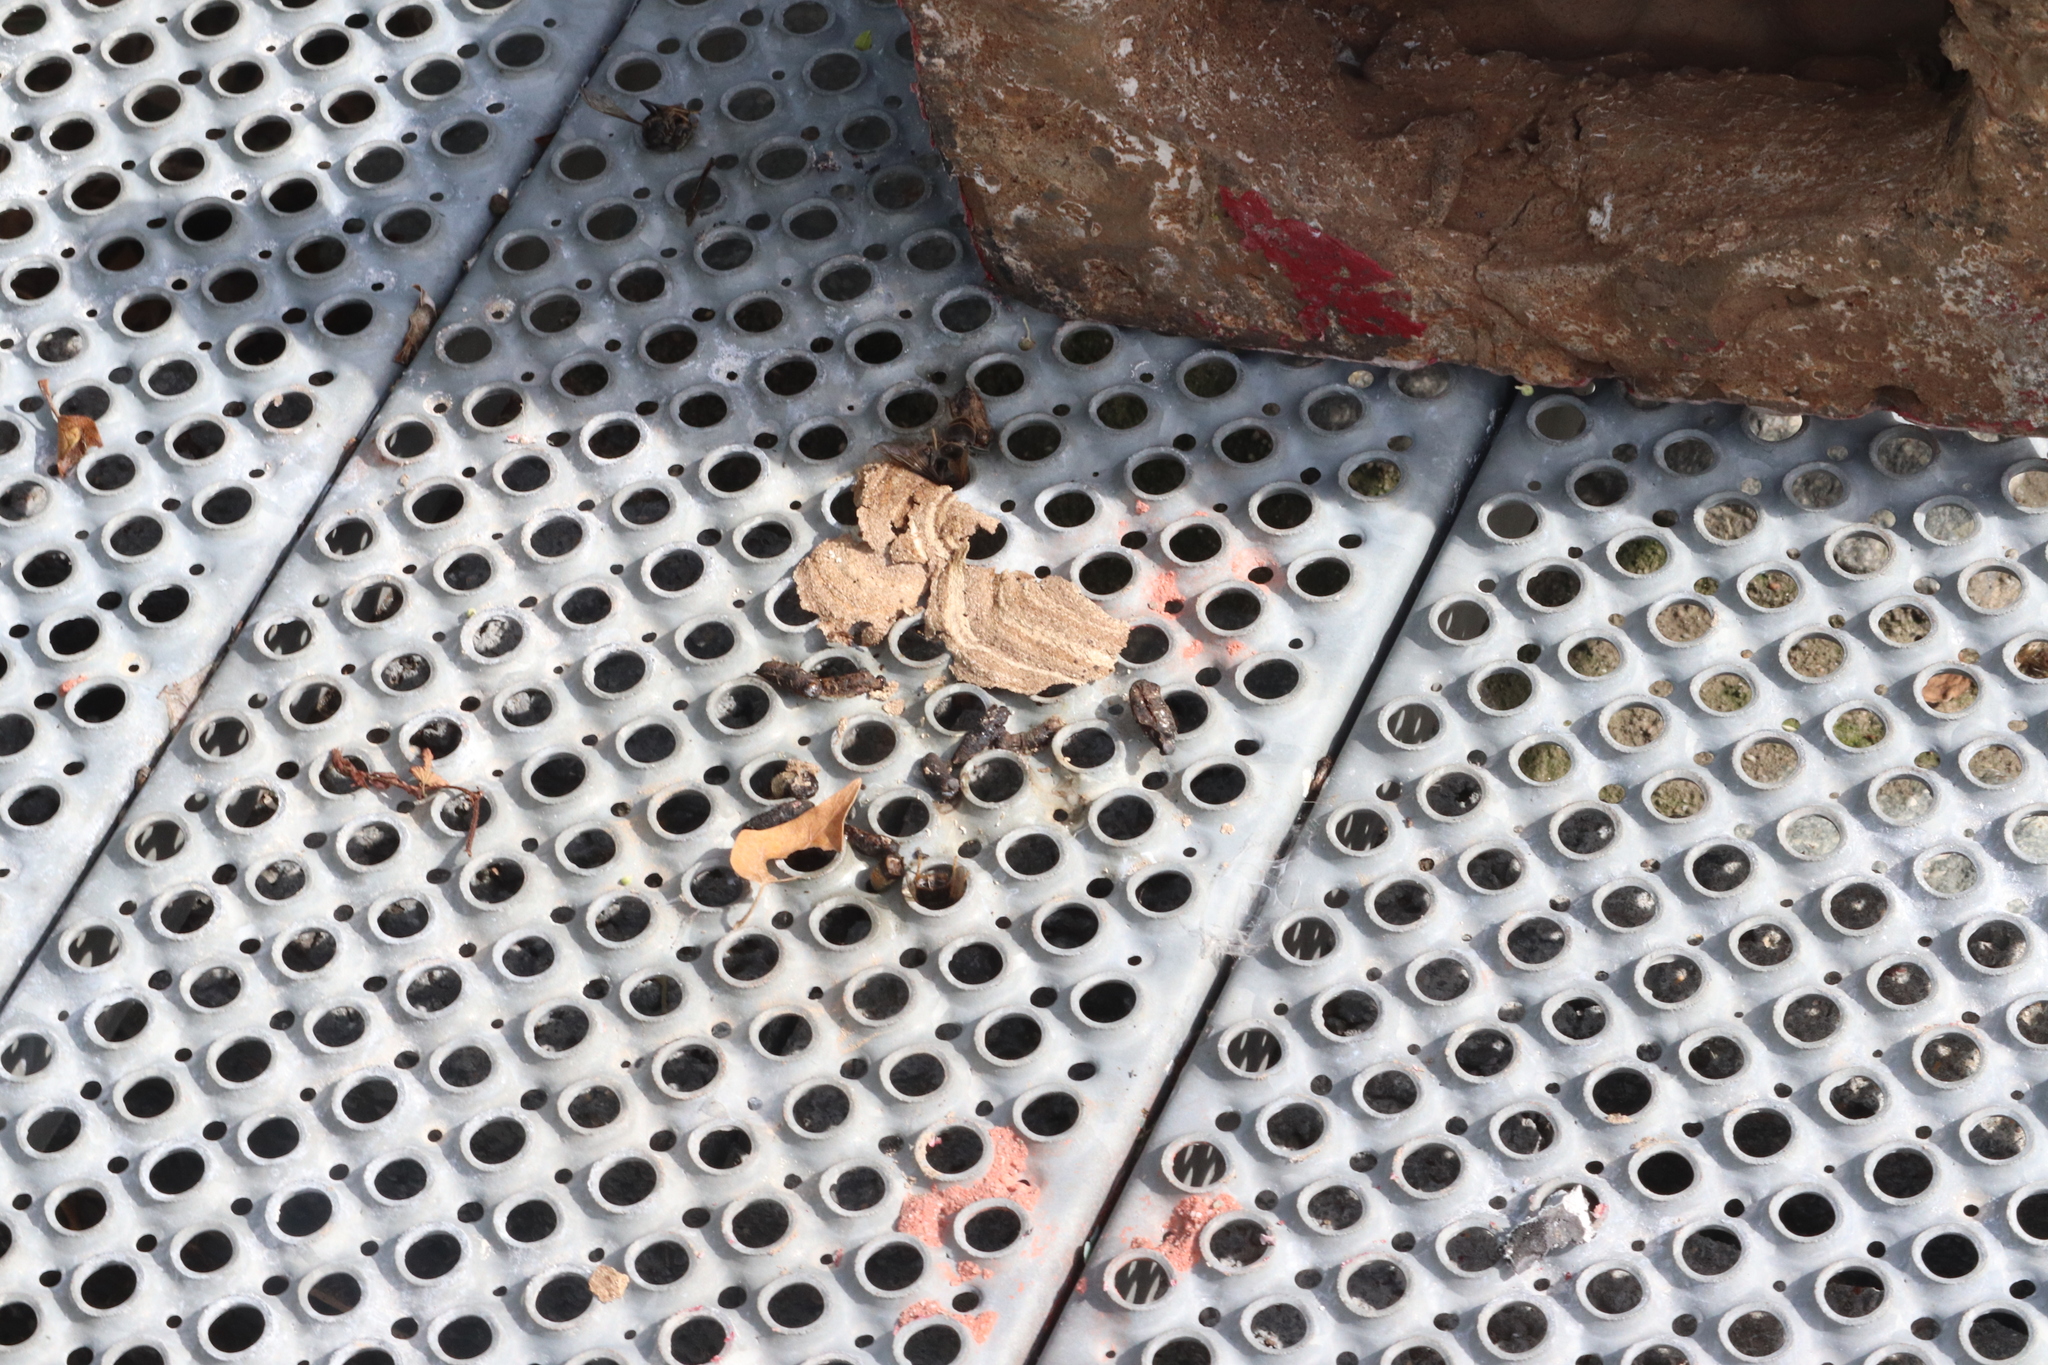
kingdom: Animalia
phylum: Arthropoda
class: Insecta
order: Hymenoptera
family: Vespidae
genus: Vespa
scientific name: Vespa velutina
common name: Asian hornet
